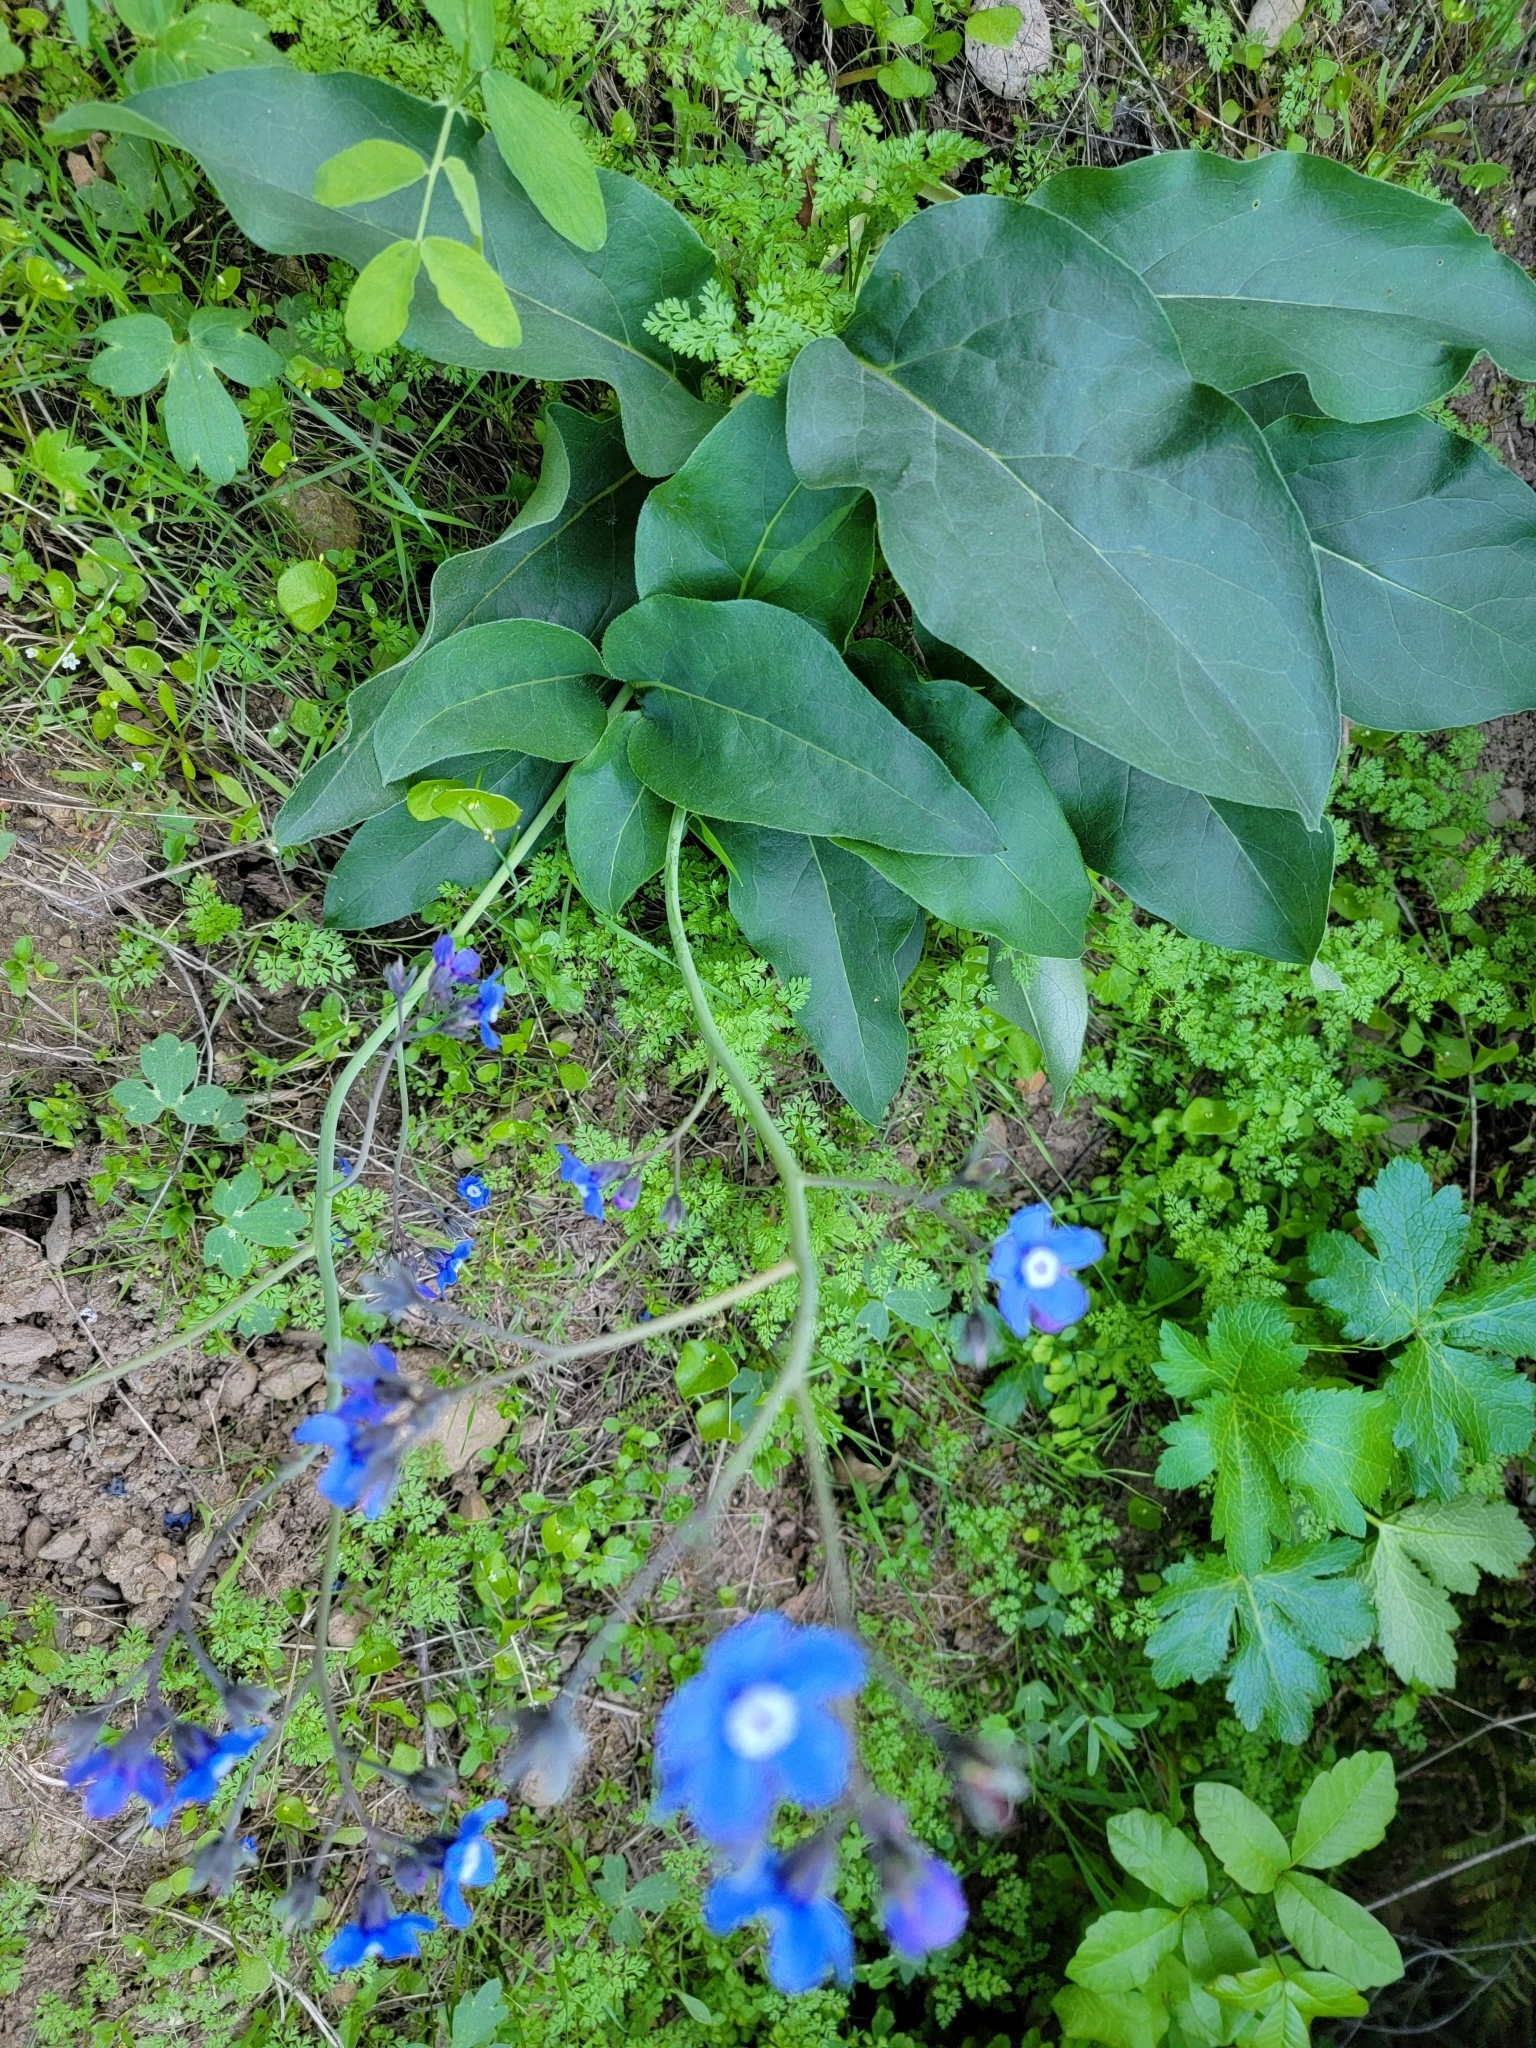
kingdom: Plantae
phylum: Tracheophyta
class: Magnoliopsida
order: Boraginales
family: Boraginaceae
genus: Adelinia
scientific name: Adelinia grande
